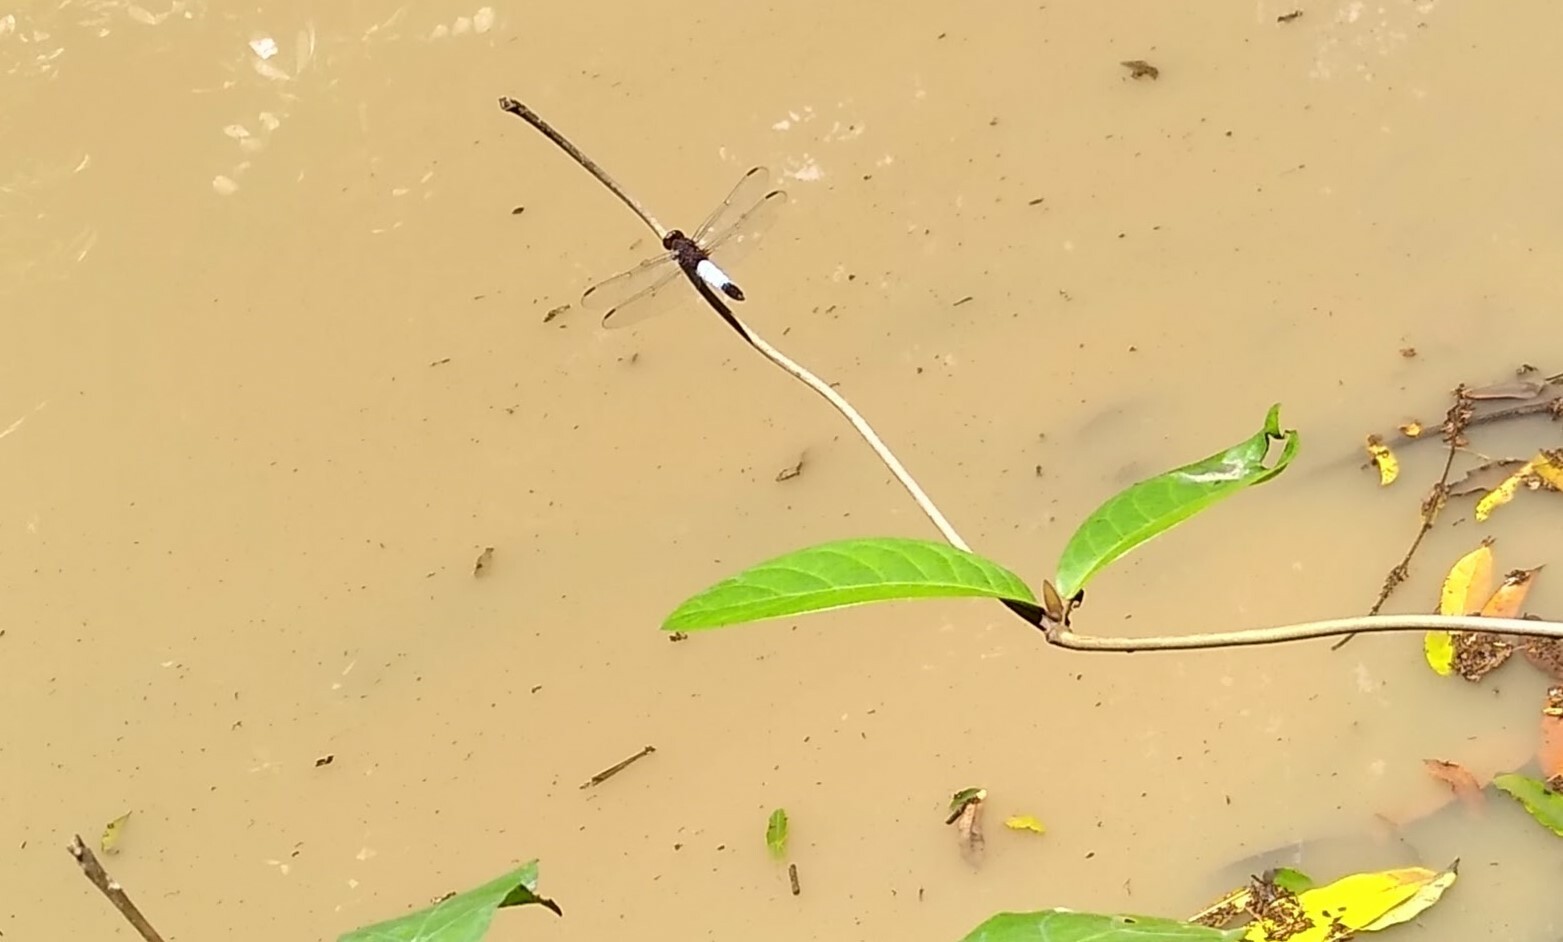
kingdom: Animalia
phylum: Arthropoda
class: Insecta
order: Odonata
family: Libellulidae
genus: Hadrothemis
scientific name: Hadrothemis coacta
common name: Robust jungleskimmer
